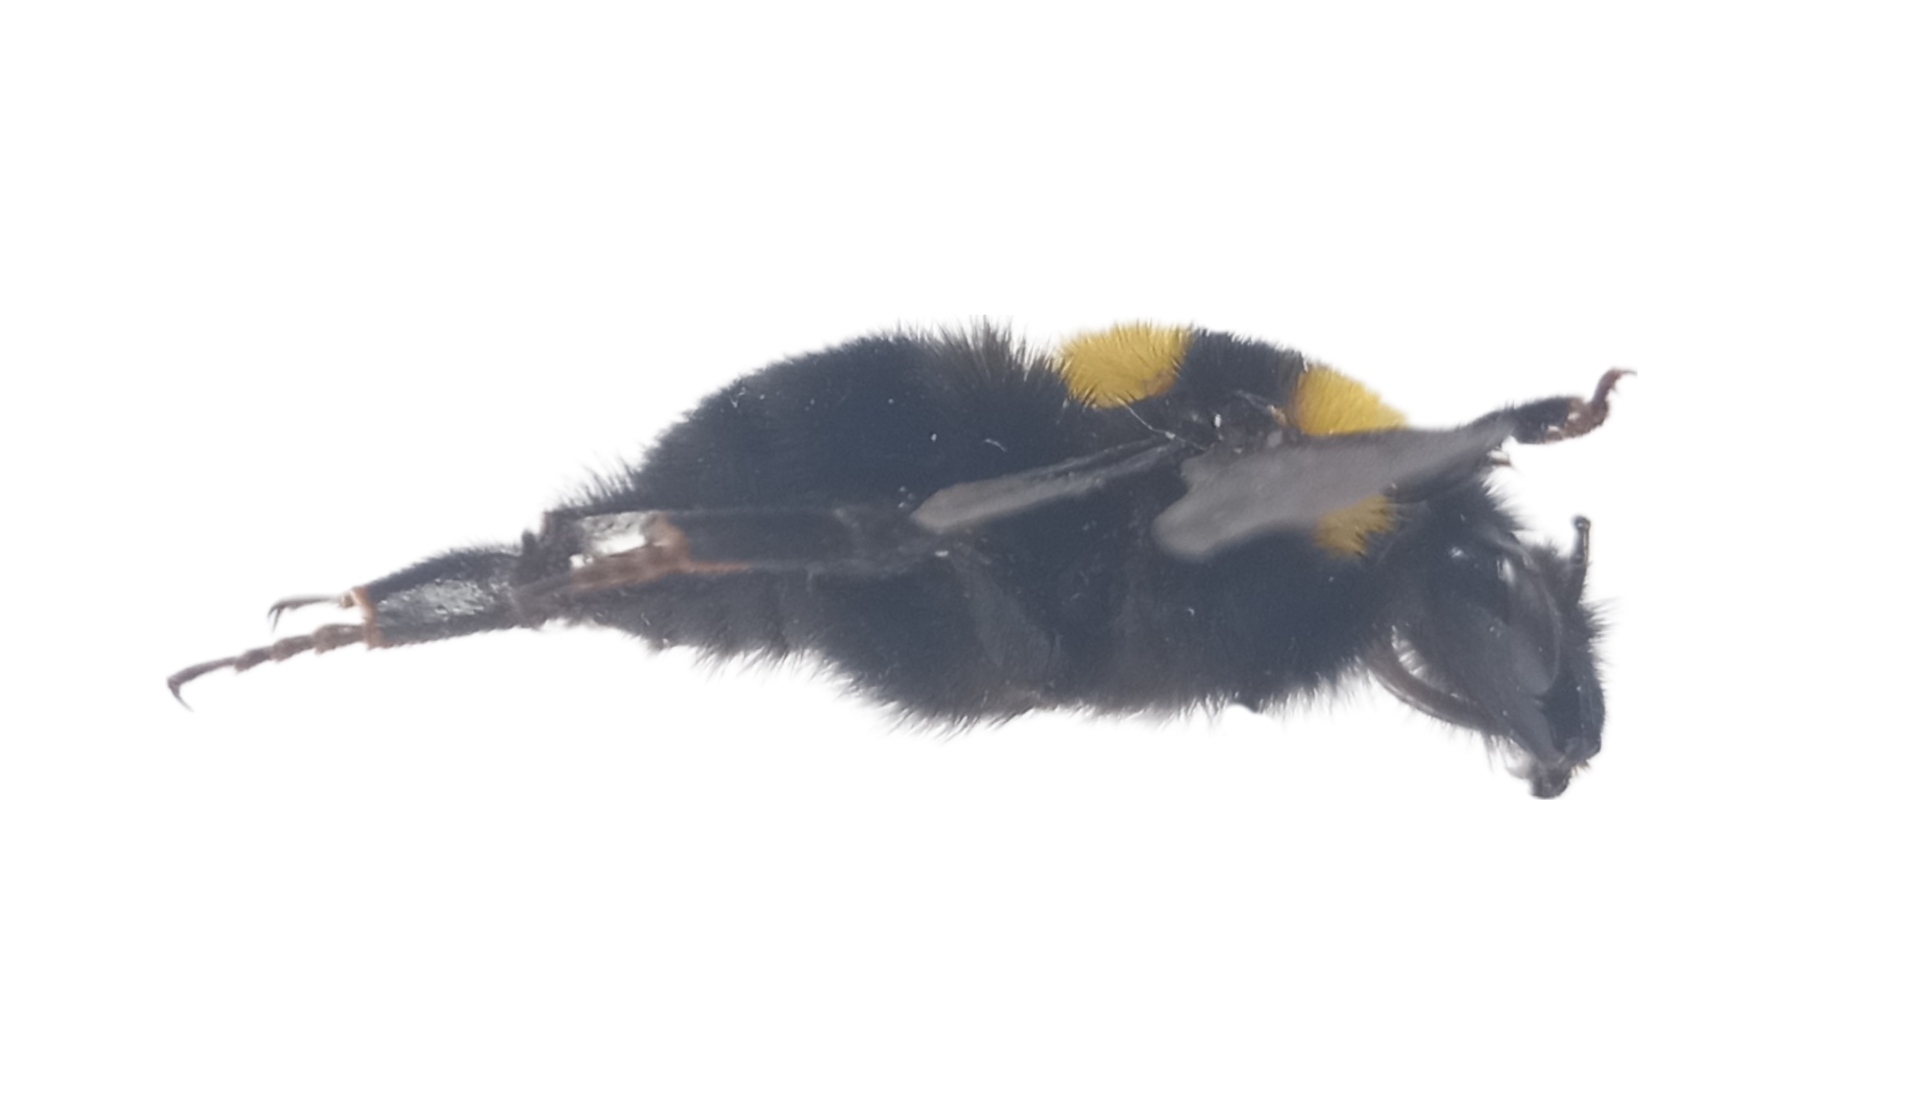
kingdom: Animalia
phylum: Arthropoda
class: Insecta
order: Hymenoptera
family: Apidae
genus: Bombus
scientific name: Bombus argillaceus
